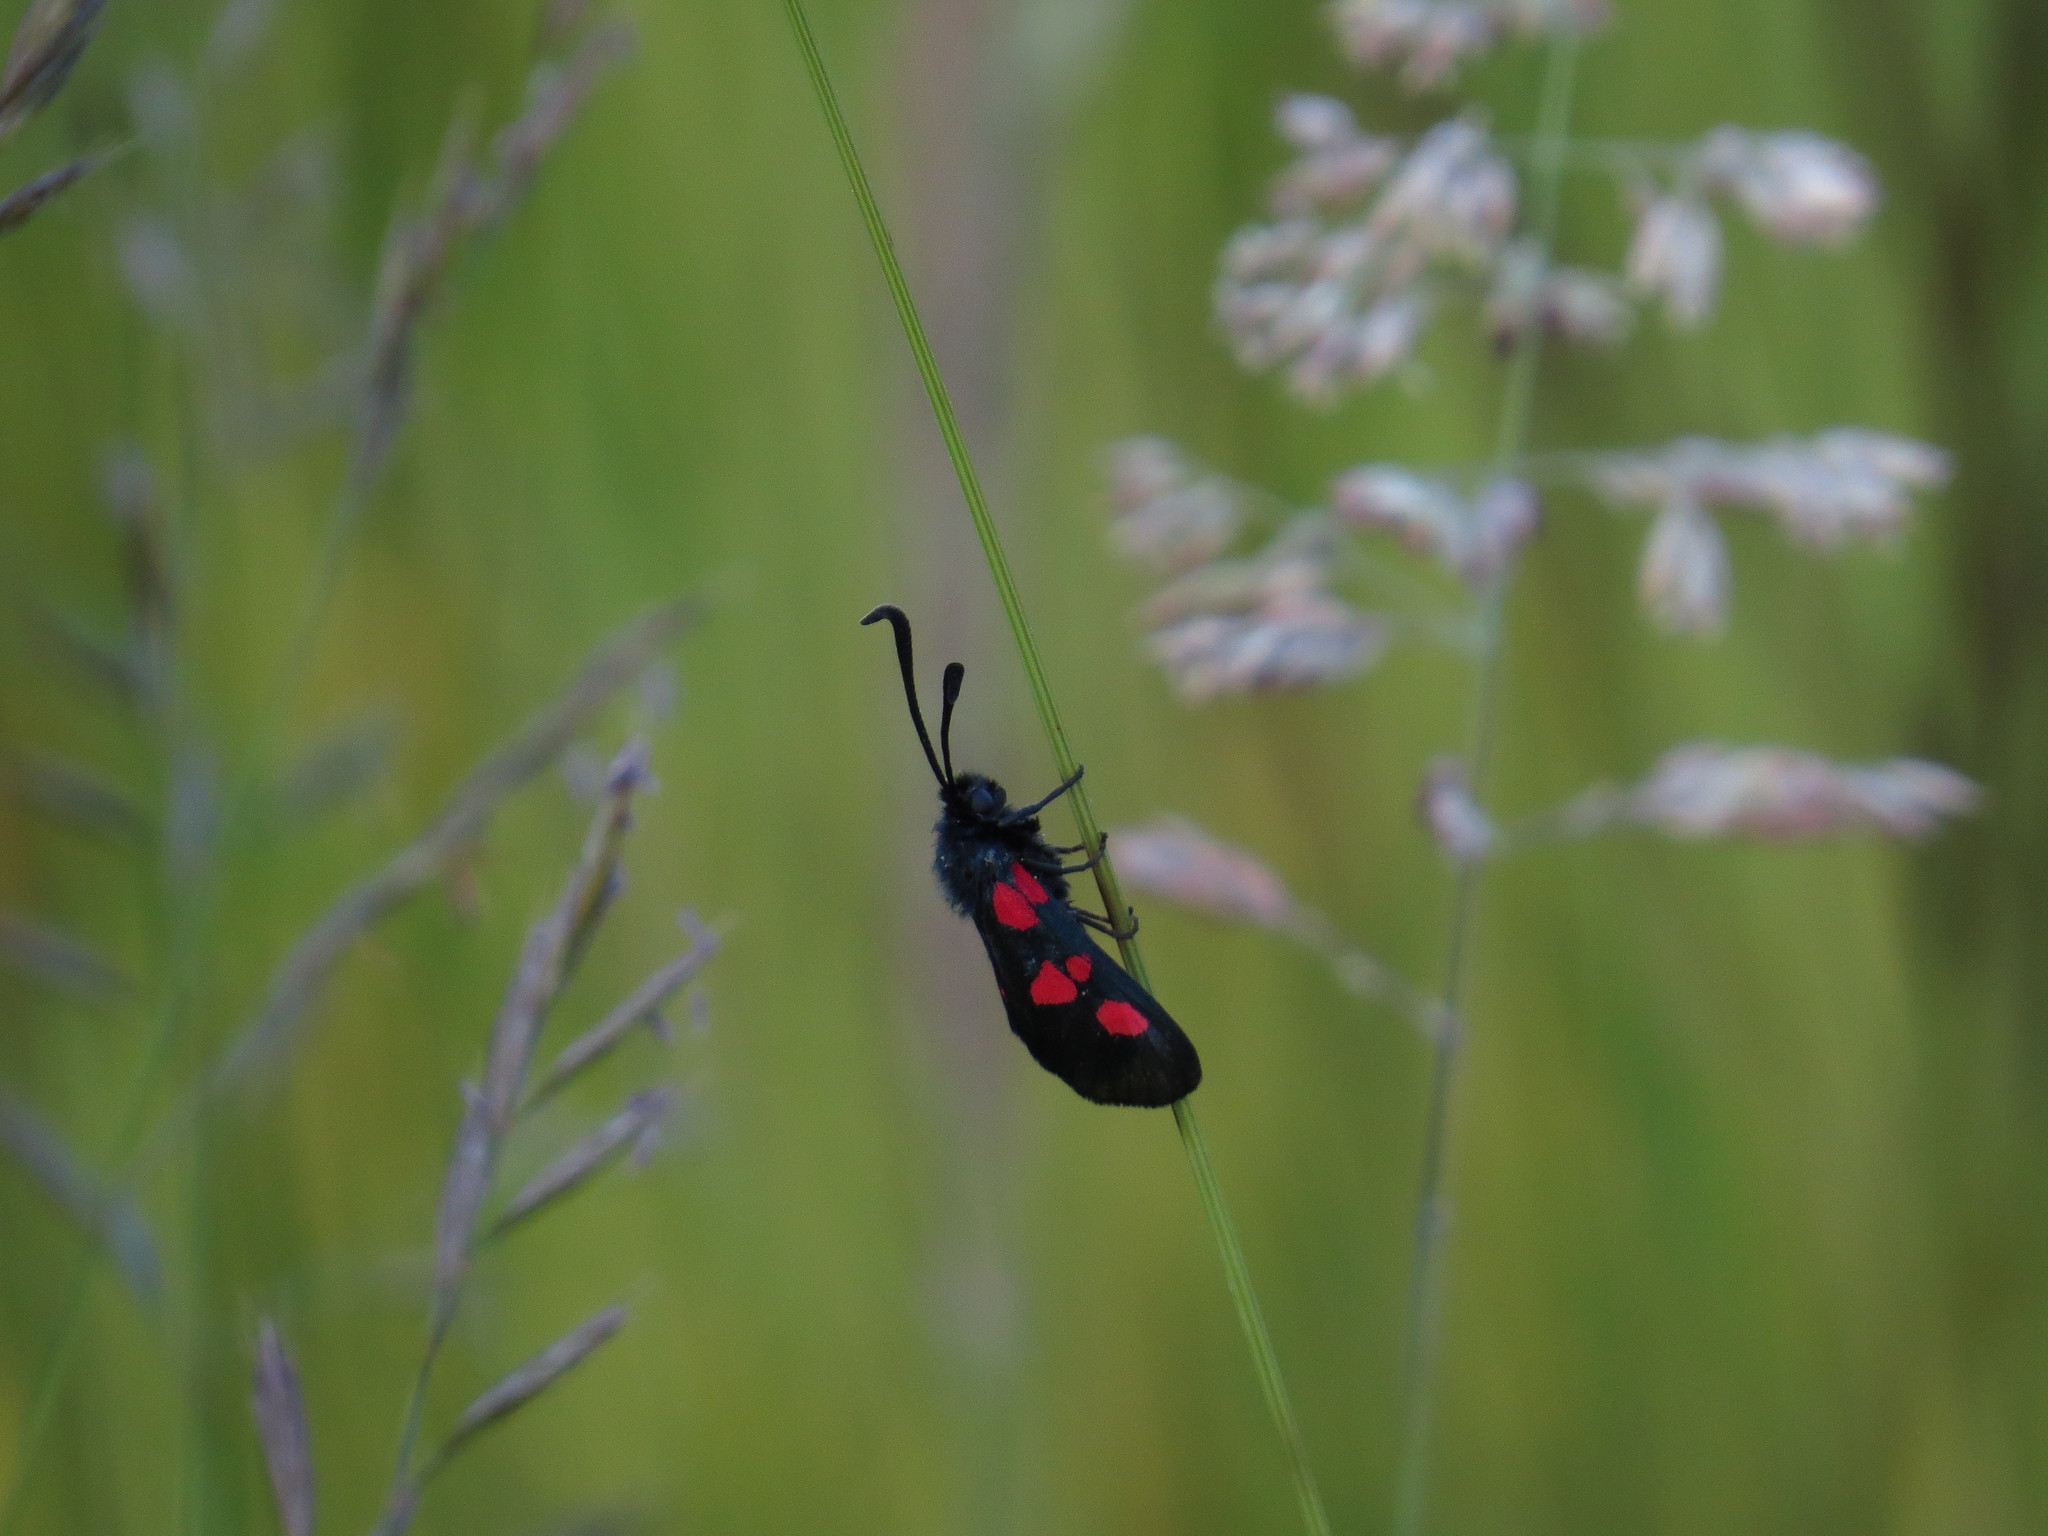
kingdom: Animalia
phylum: Arthropoda
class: Insecta
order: Lepidoptera
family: Zygaenidae
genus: Zygaena
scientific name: Zygaena trifolii
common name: Five-spot burnet
